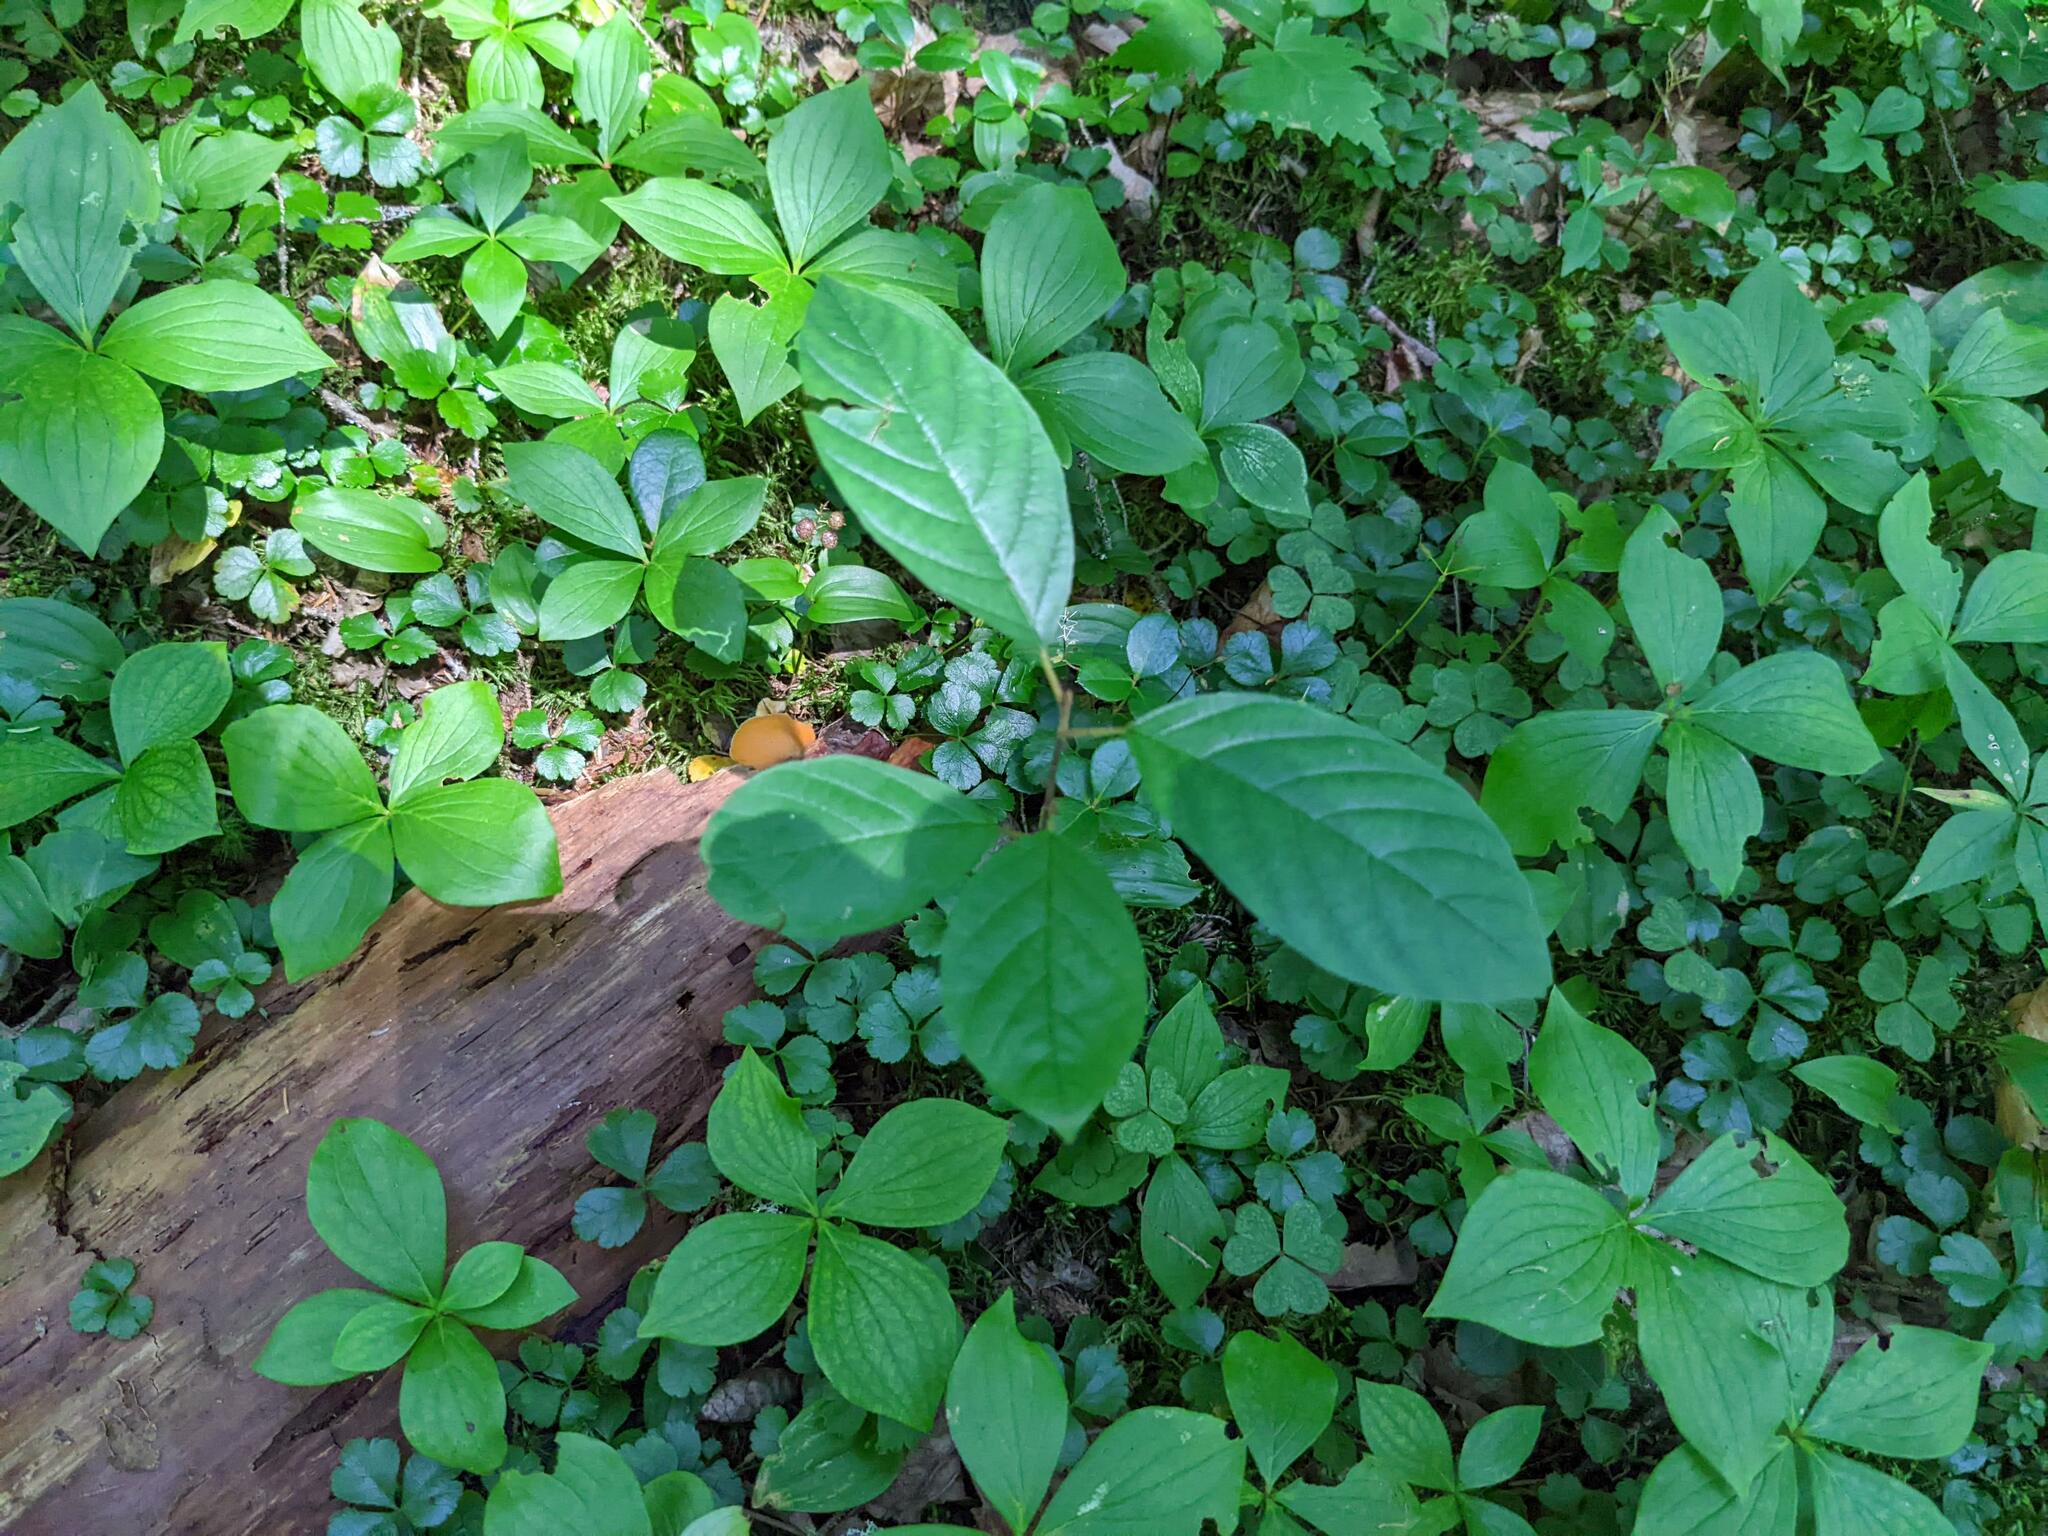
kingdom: Plantae
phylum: Tracheophyta
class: Magnoliopsida
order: Rosales
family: Rhamnaceae
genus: Frangula
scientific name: Frangula alnus
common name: Alder buckthorn
